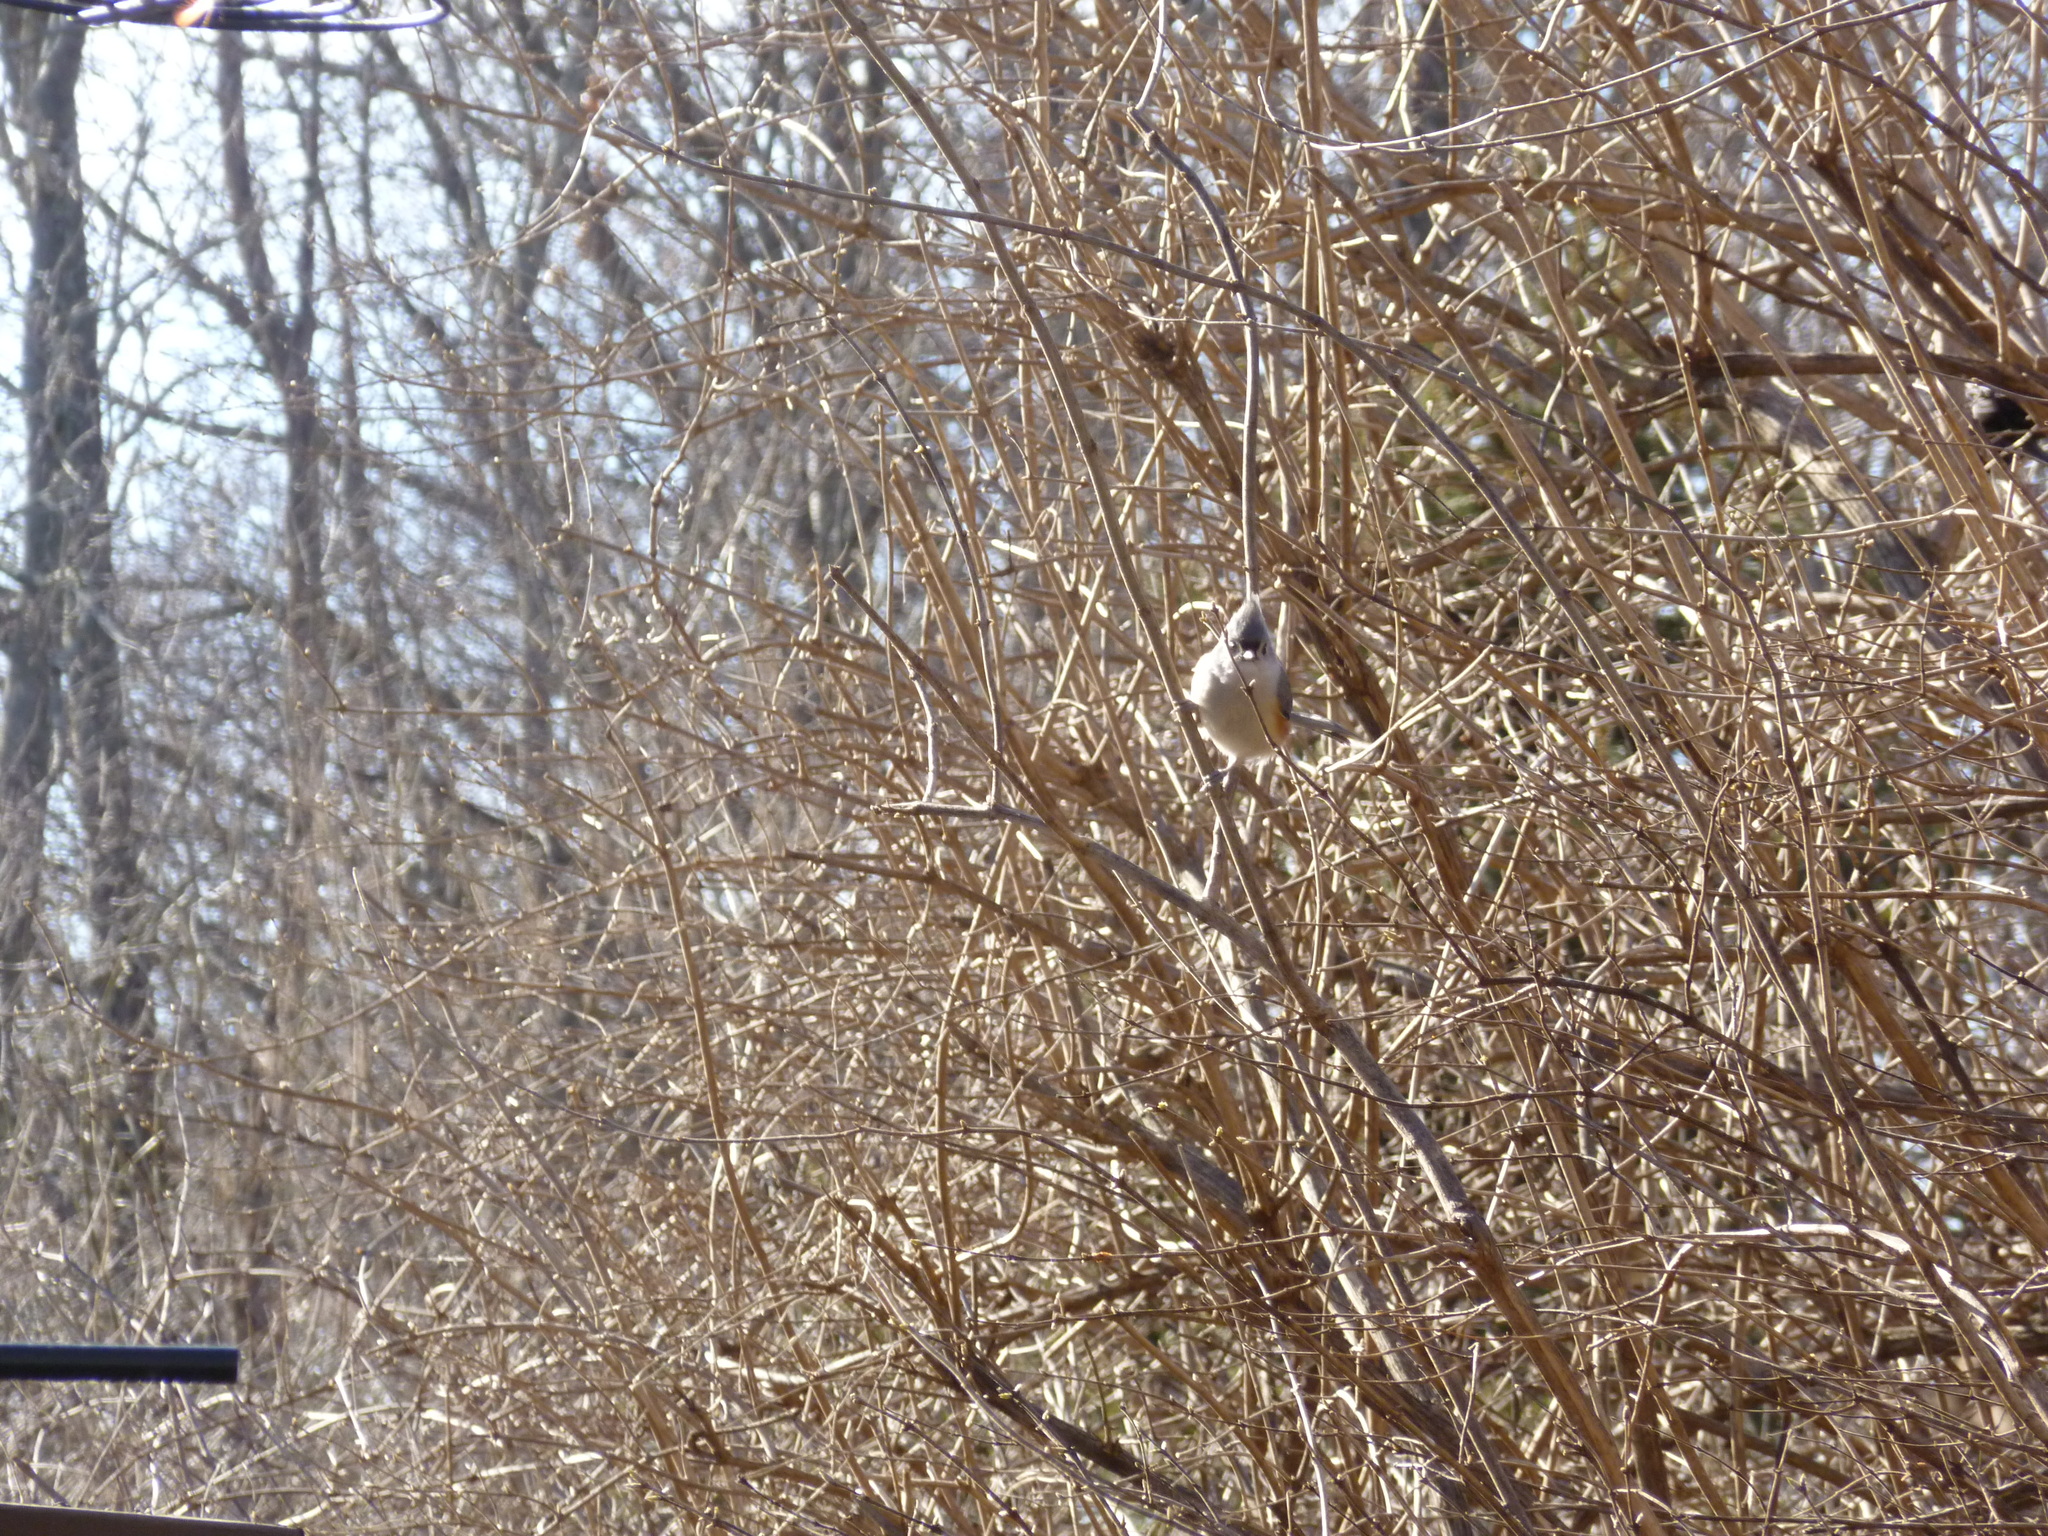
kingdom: Animalia
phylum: Chordata
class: Aves
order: Passeriformes
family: Paridae
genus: Baeolophus
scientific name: Baeolophus bicolor
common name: Tufted titmouse
